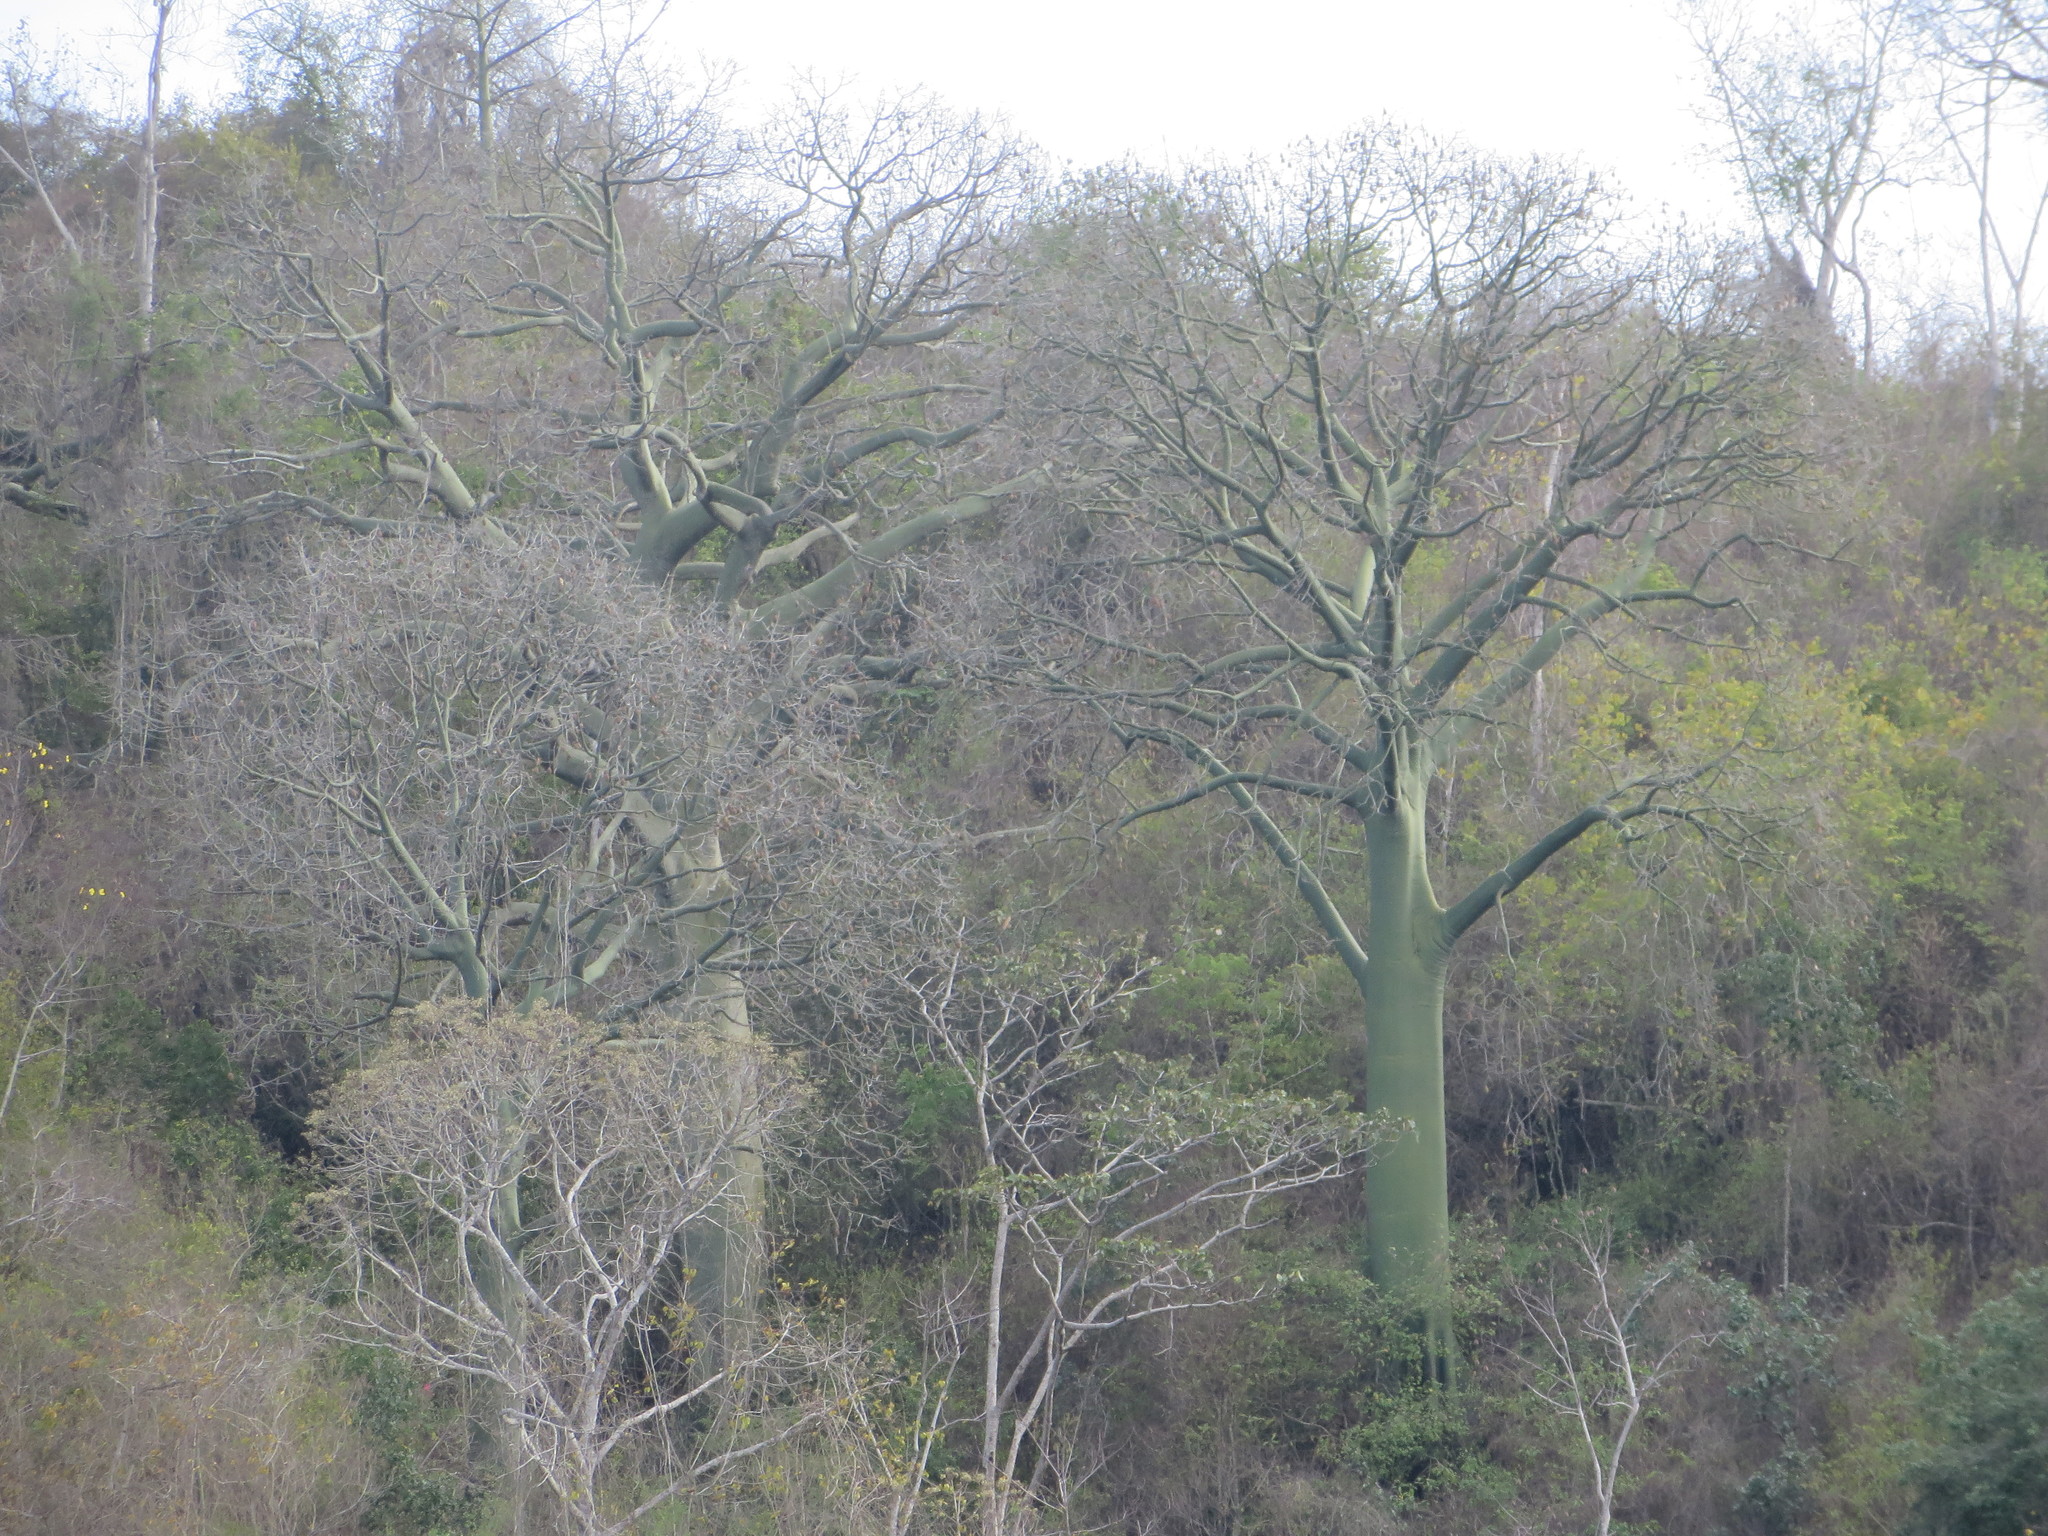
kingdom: Plantae
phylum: Tracheophyta
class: Magnoliopsida
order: Malvales
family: Malvaceae
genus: Ceiba
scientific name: Ceiba trischistandra
